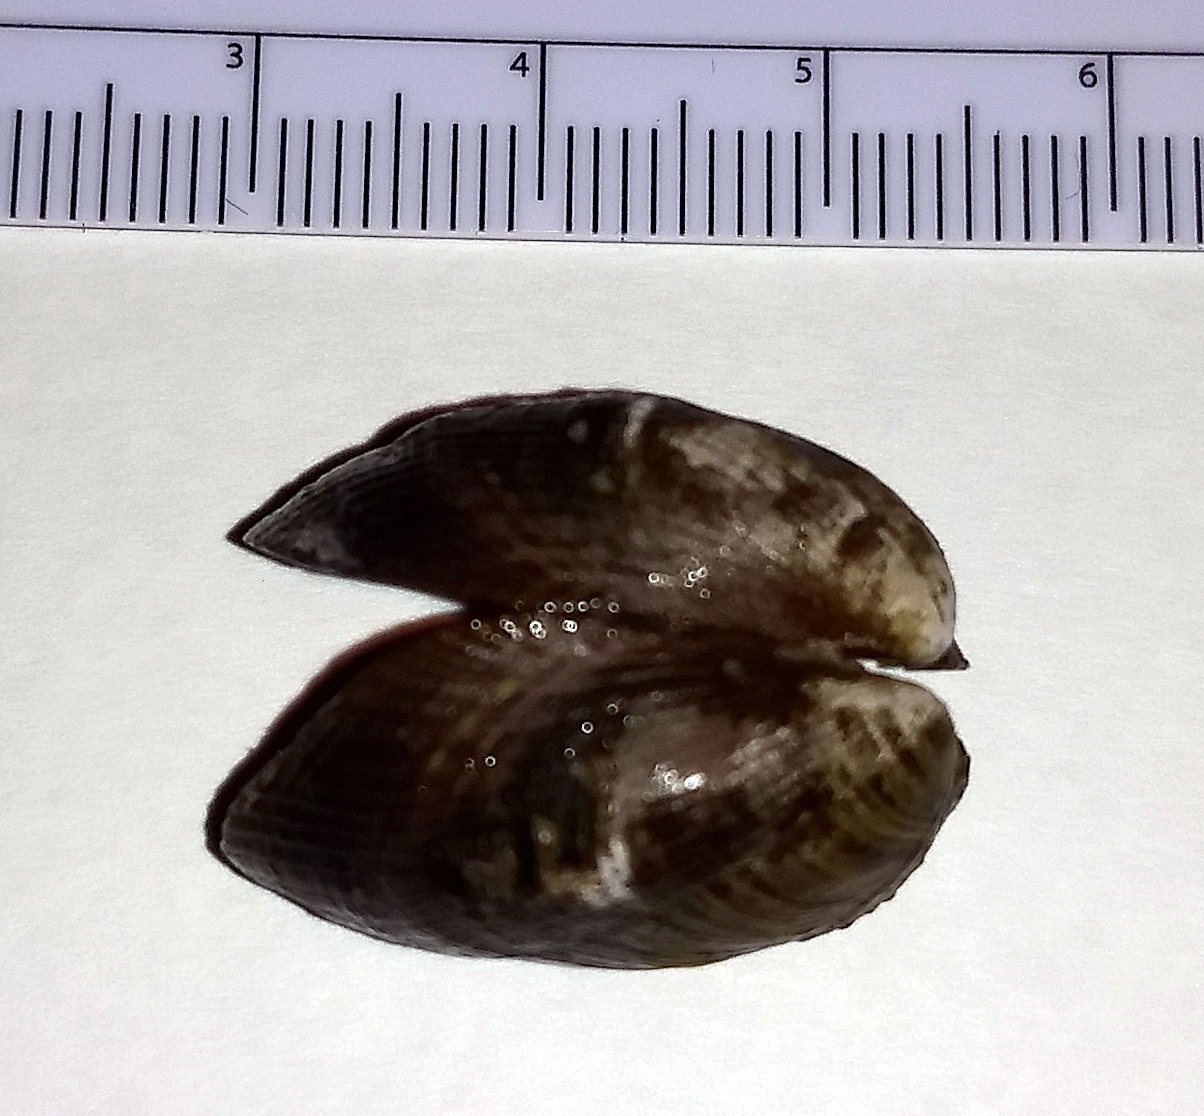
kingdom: Animalia
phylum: Mollusca
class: Bivalvia
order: Mytilida
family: Mytilidae
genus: Musculus
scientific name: Musculus impactus
